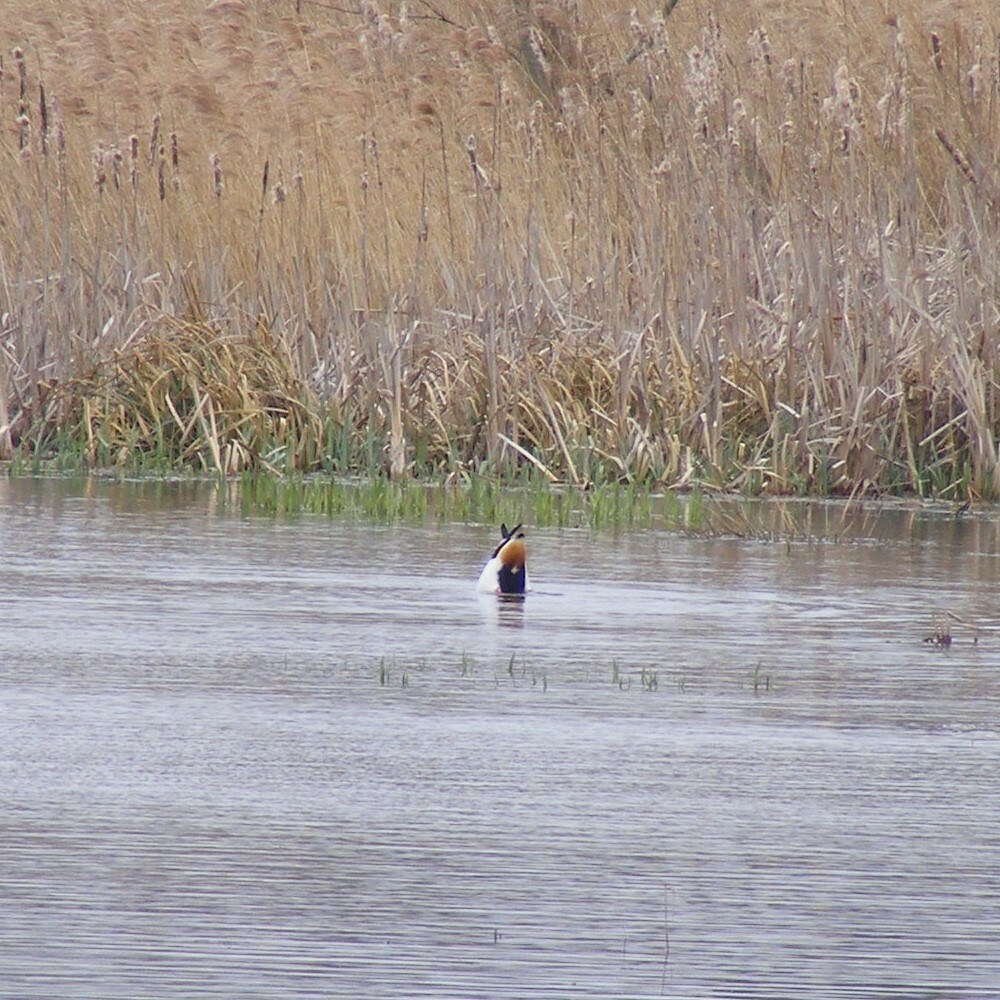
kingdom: Animalia
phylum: Chordata
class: Aves
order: Anseriformes
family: Anatidae
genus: Tadorna
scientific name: Tadorna tadorna
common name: Common shelduck
